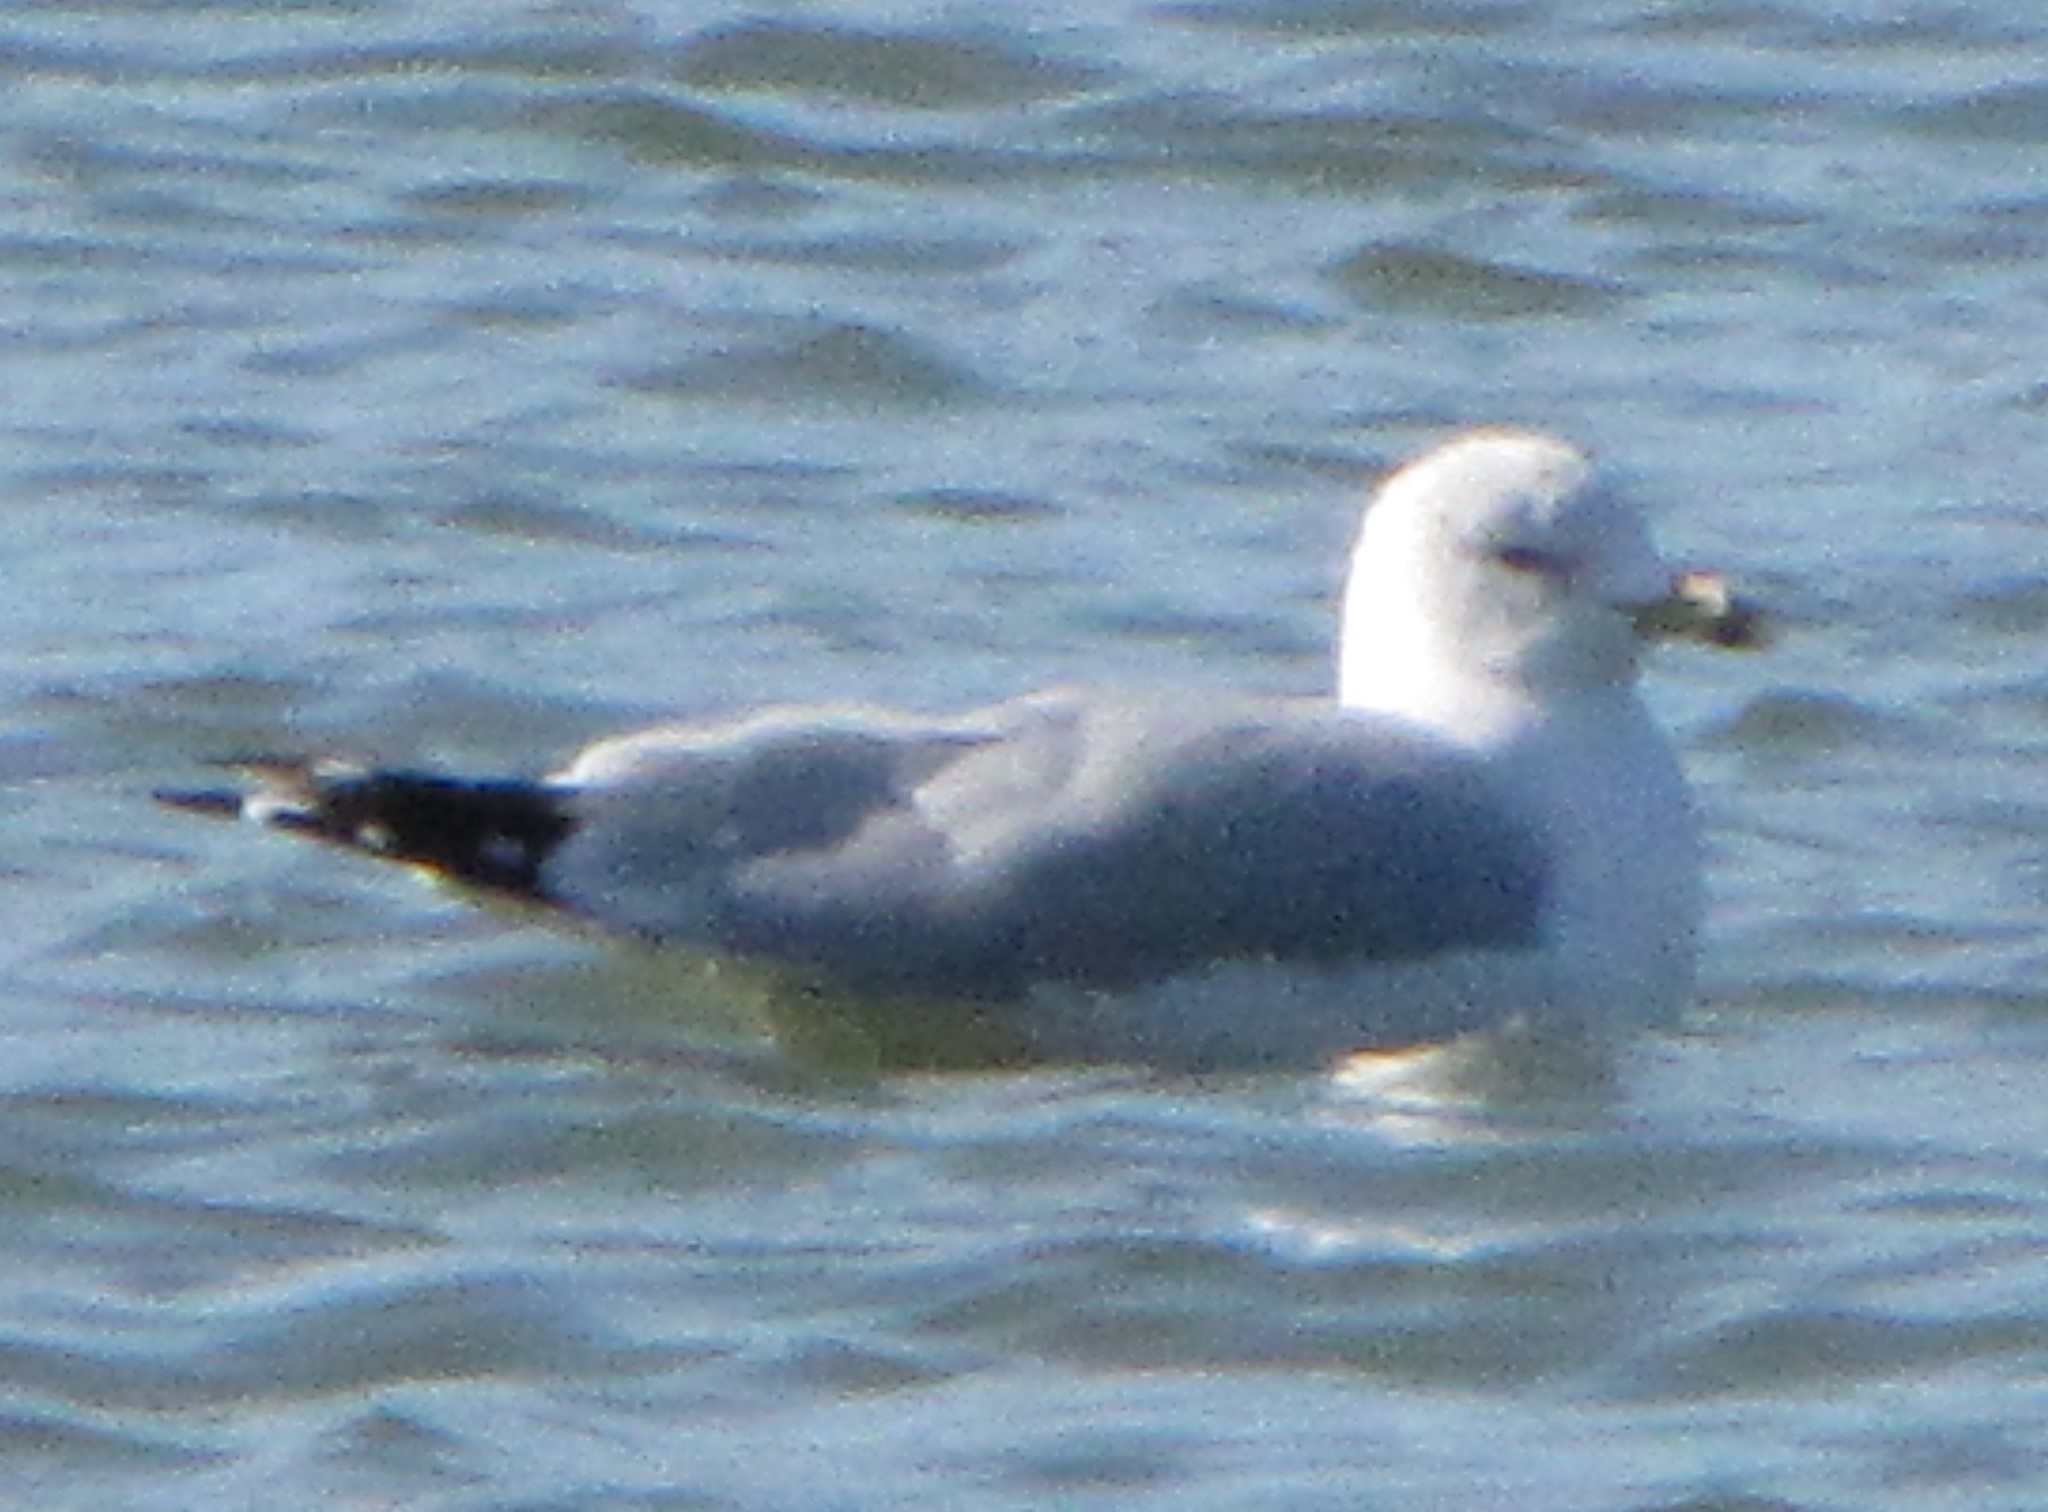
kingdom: Animalia
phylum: Chordata
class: Aves
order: Charadriiformes
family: Laridae
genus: Larus
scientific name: Larus delawarensis
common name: Ring-billed gull
